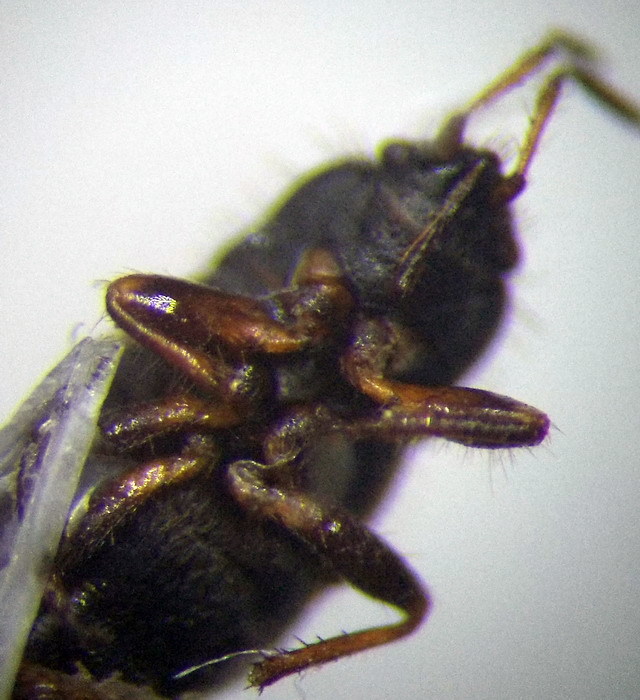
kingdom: Animalia
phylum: Arthropoda
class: Insecta
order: Hemiptera
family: Rhyparochromidae
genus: Pionosomus
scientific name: Pionosomus opacellus
